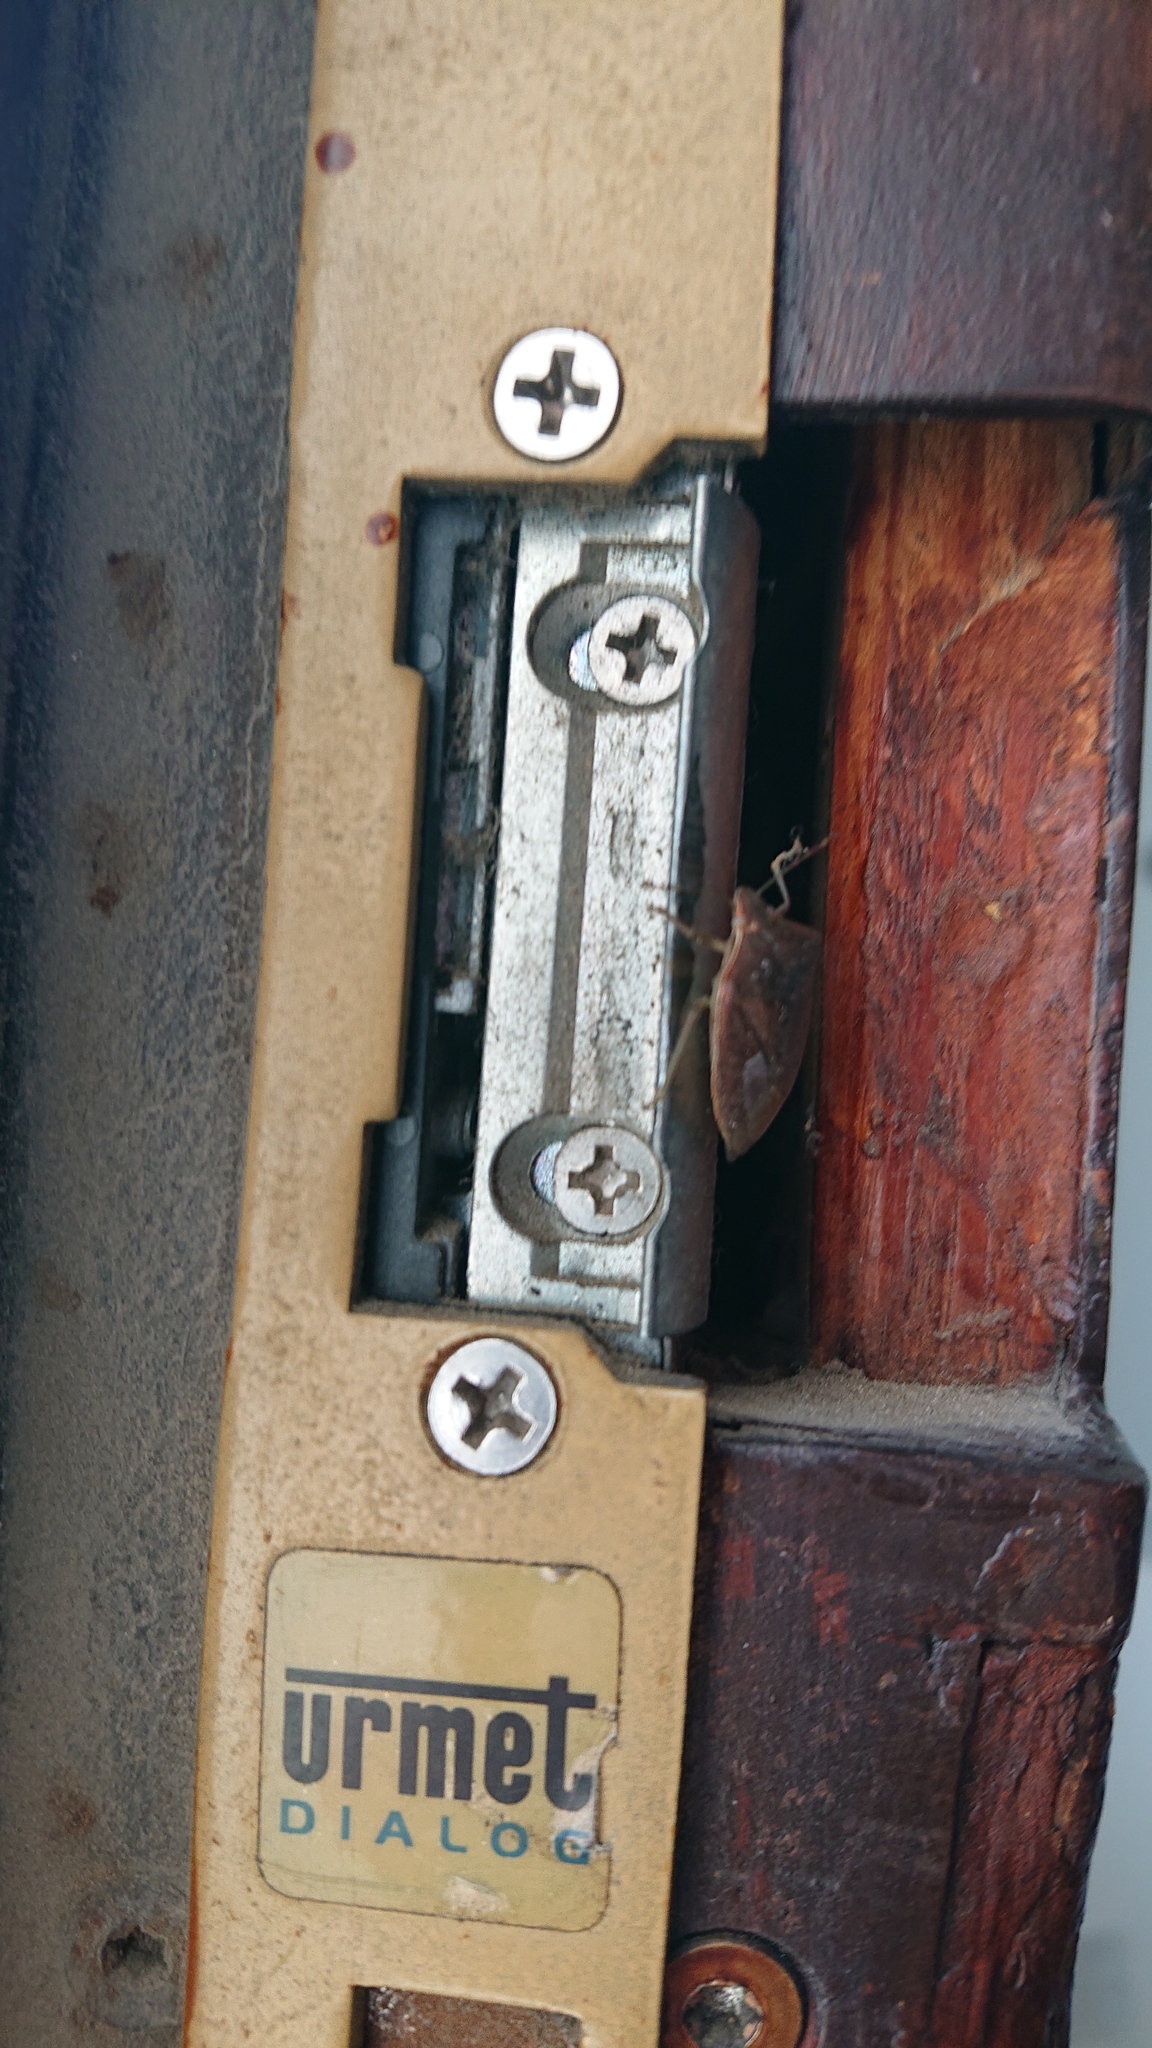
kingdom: Animalia
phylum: Arthropoda
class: Insecta
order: Hemiptera
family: Pentatomidae
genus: Nezara
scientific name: Nezara viridula
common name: Southern green stink bug
